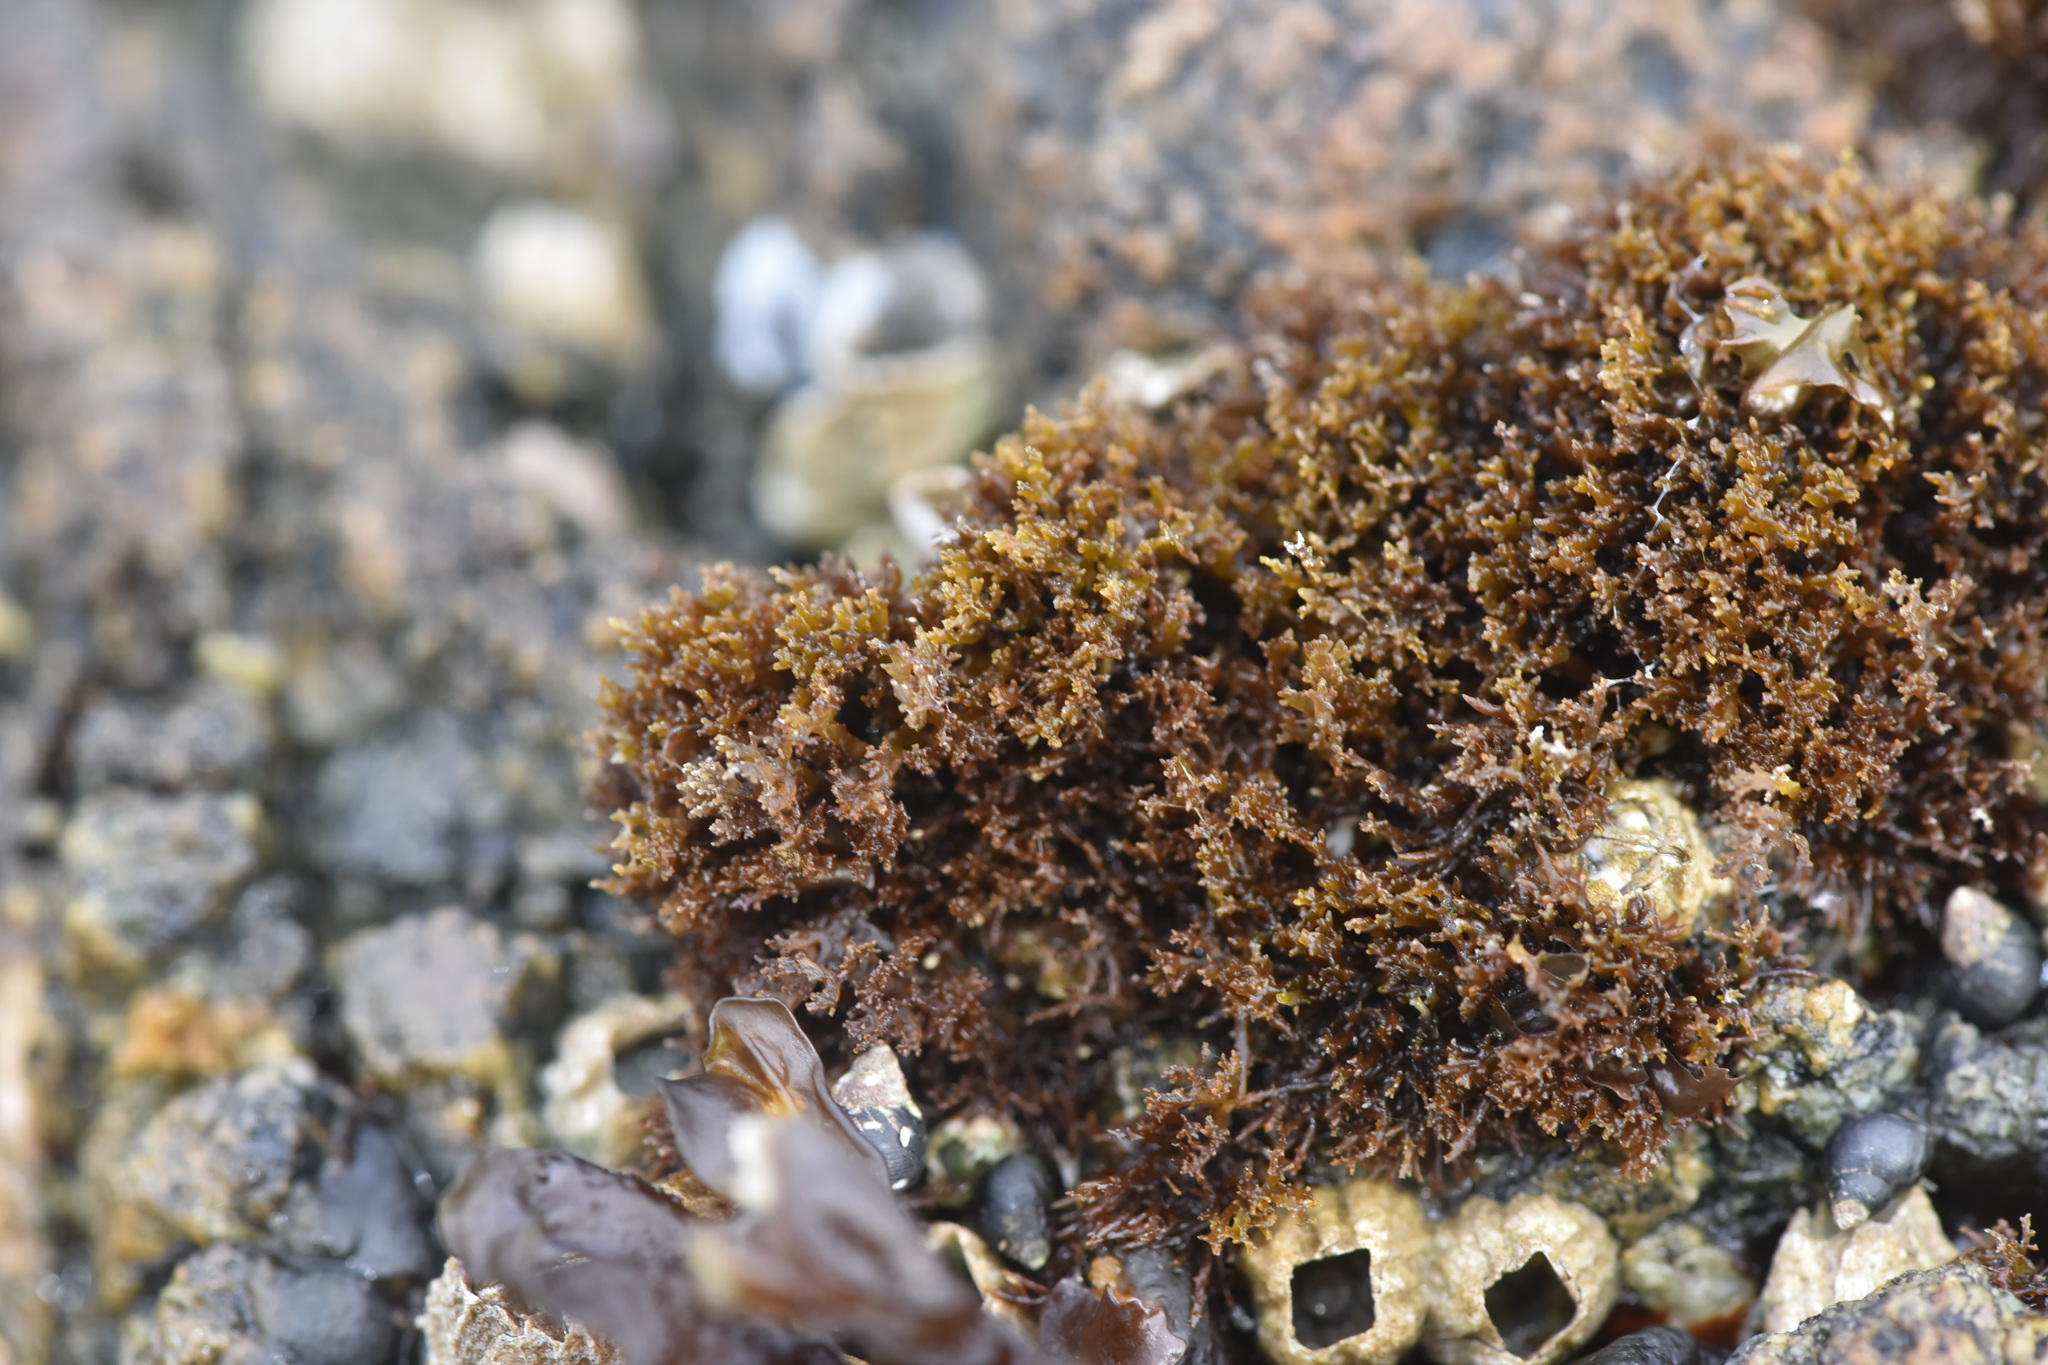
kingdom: Plantae
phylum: Rhodophyta
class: Florideophyceae
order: Gigartinales
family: Endocladiaceae
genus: Endocladia
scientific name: Endocladia muricata
